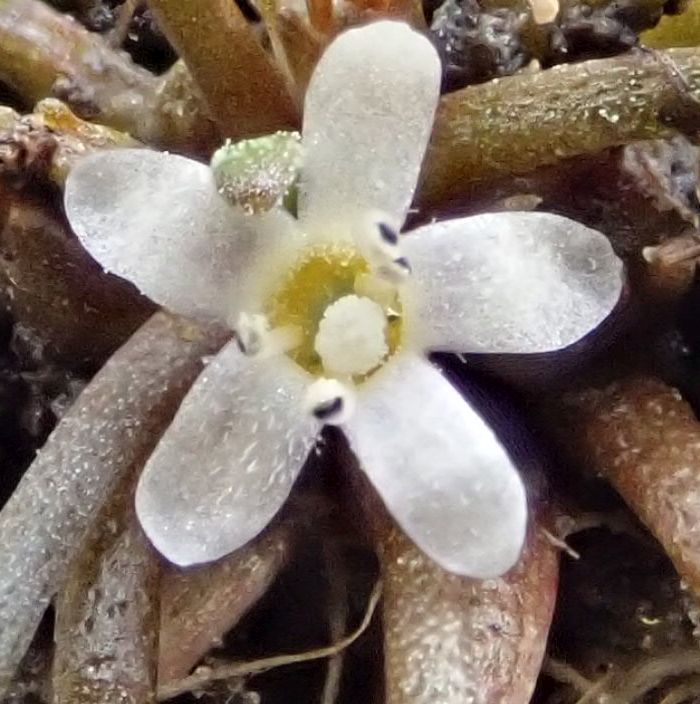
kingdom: Plantae
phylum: Tracheophyta
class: Magnoliopsida
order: Lamiales
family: Scrophulariaceae
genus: Limosella
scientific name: Limosella australis
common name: Welsh mudwort
